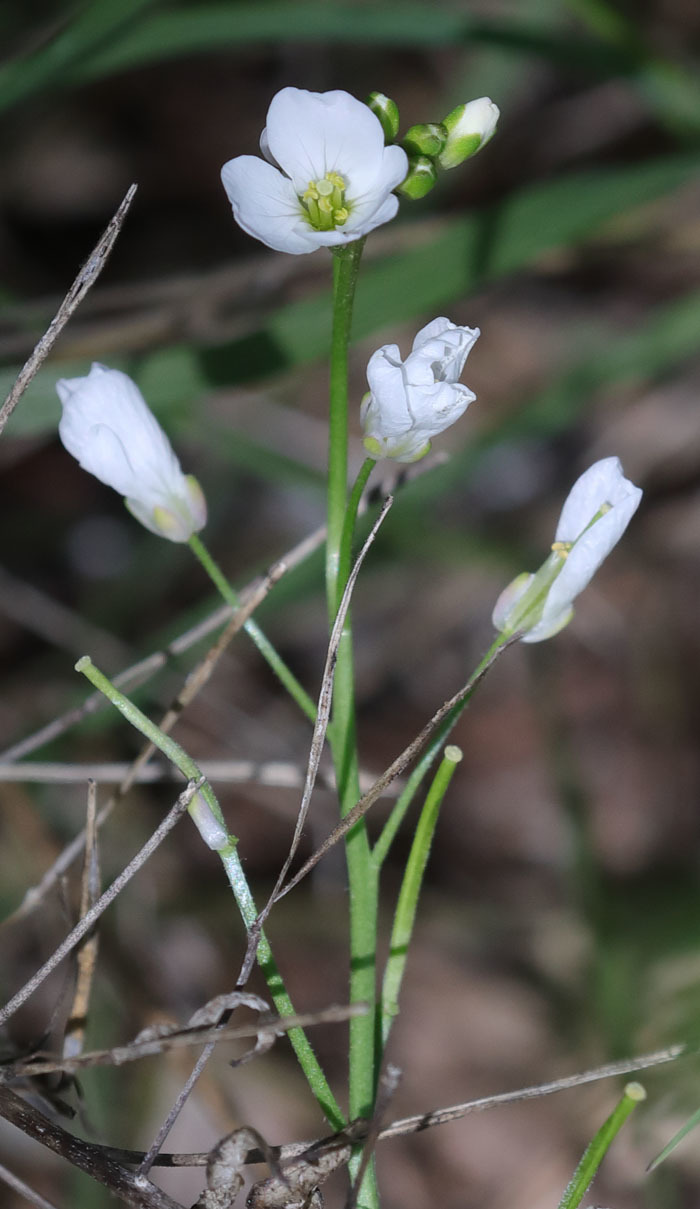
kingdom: Plantae
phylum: Tracheophyta
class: Magnoliopsida
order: Brassicales
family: Brassicaceae
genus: Cardamine
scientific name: Cardamine californica
